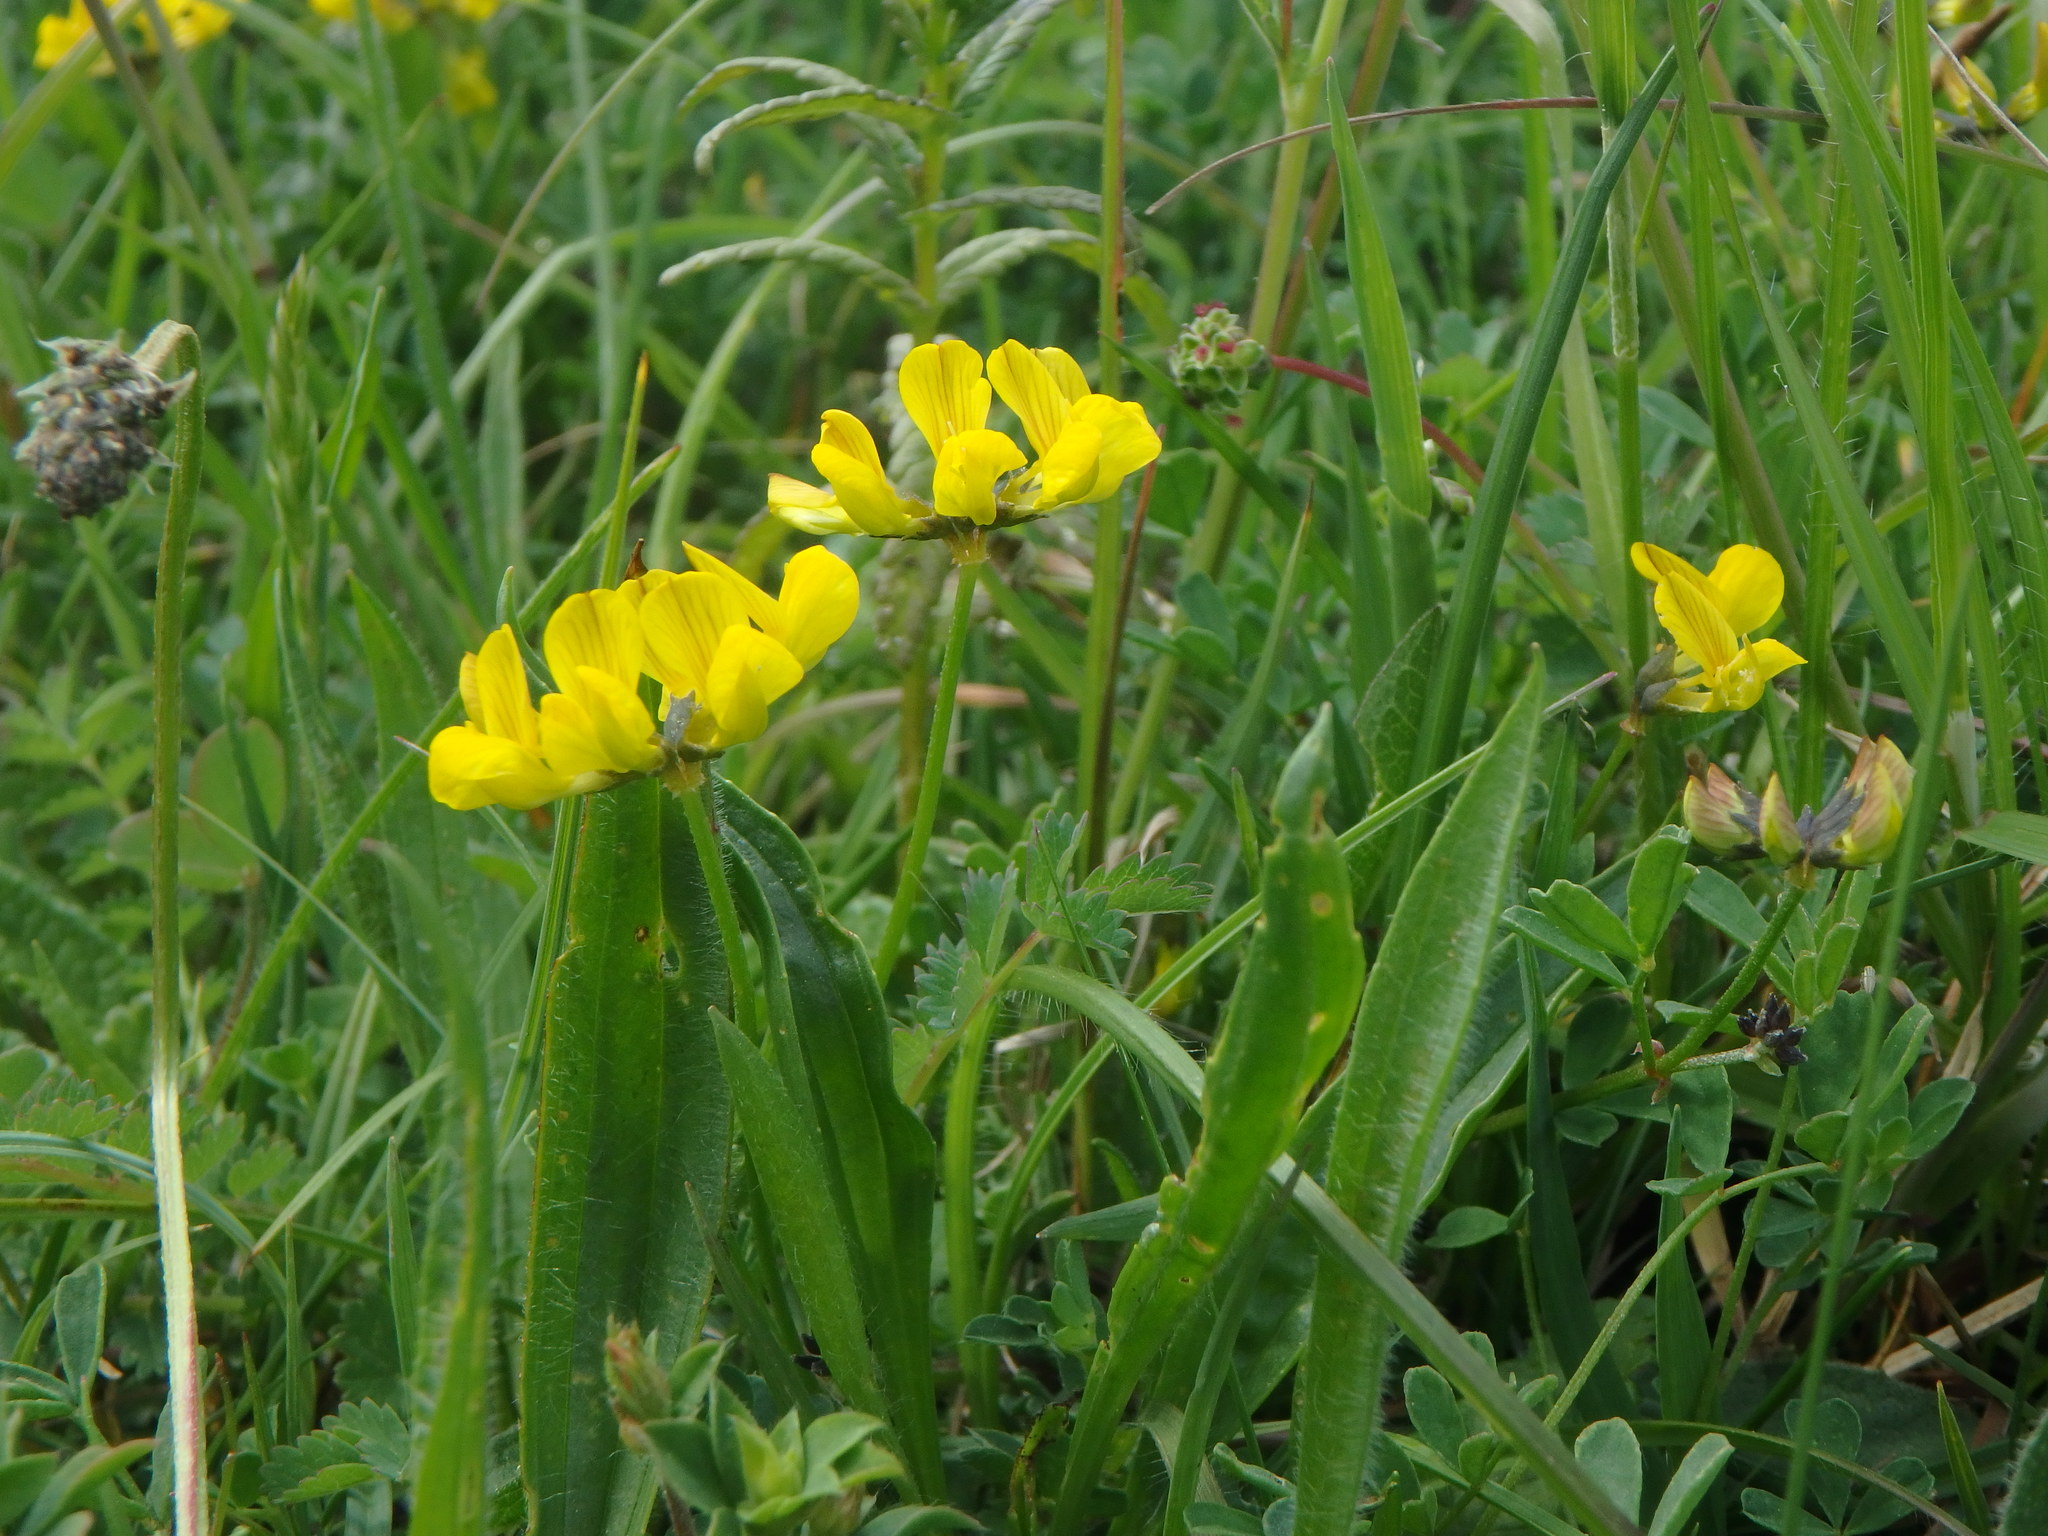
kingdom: Plantae
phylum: Tracheophyta
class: Magnoliopsida
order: Fabales
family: Fabaceae
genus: Hippocrepis
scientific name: Hippocrepis comosa
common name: Horseshoe vetch
